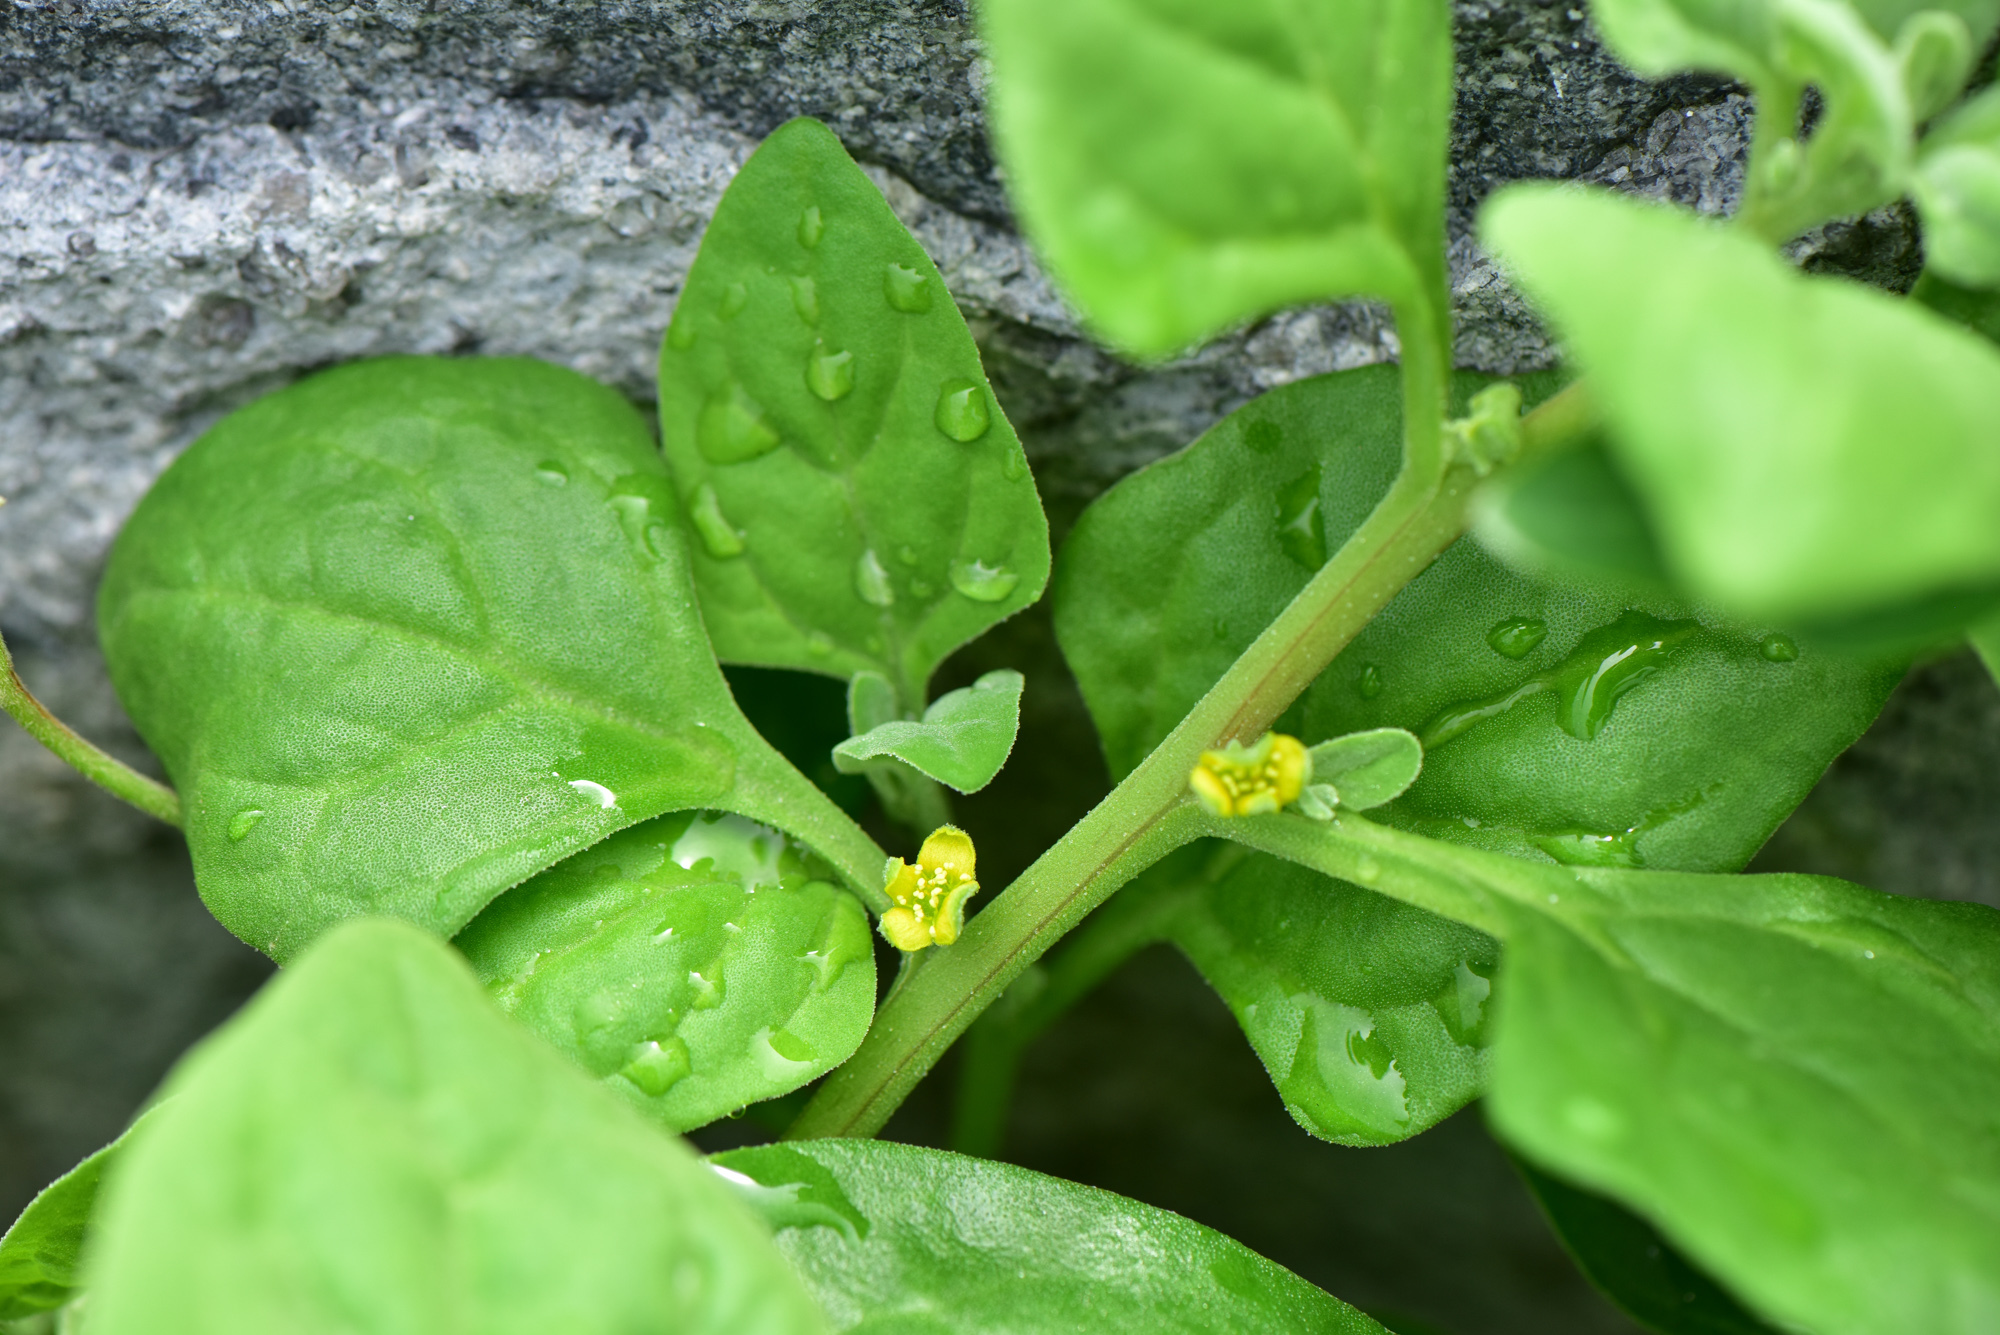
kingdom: Plantae
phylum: Tracheophyta
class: Magnoliopsida
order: Caryophyllales
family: Aizoaceae
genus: Tetragonia
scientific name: Tetragonia tetragonoides
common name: New zealand-spinach
